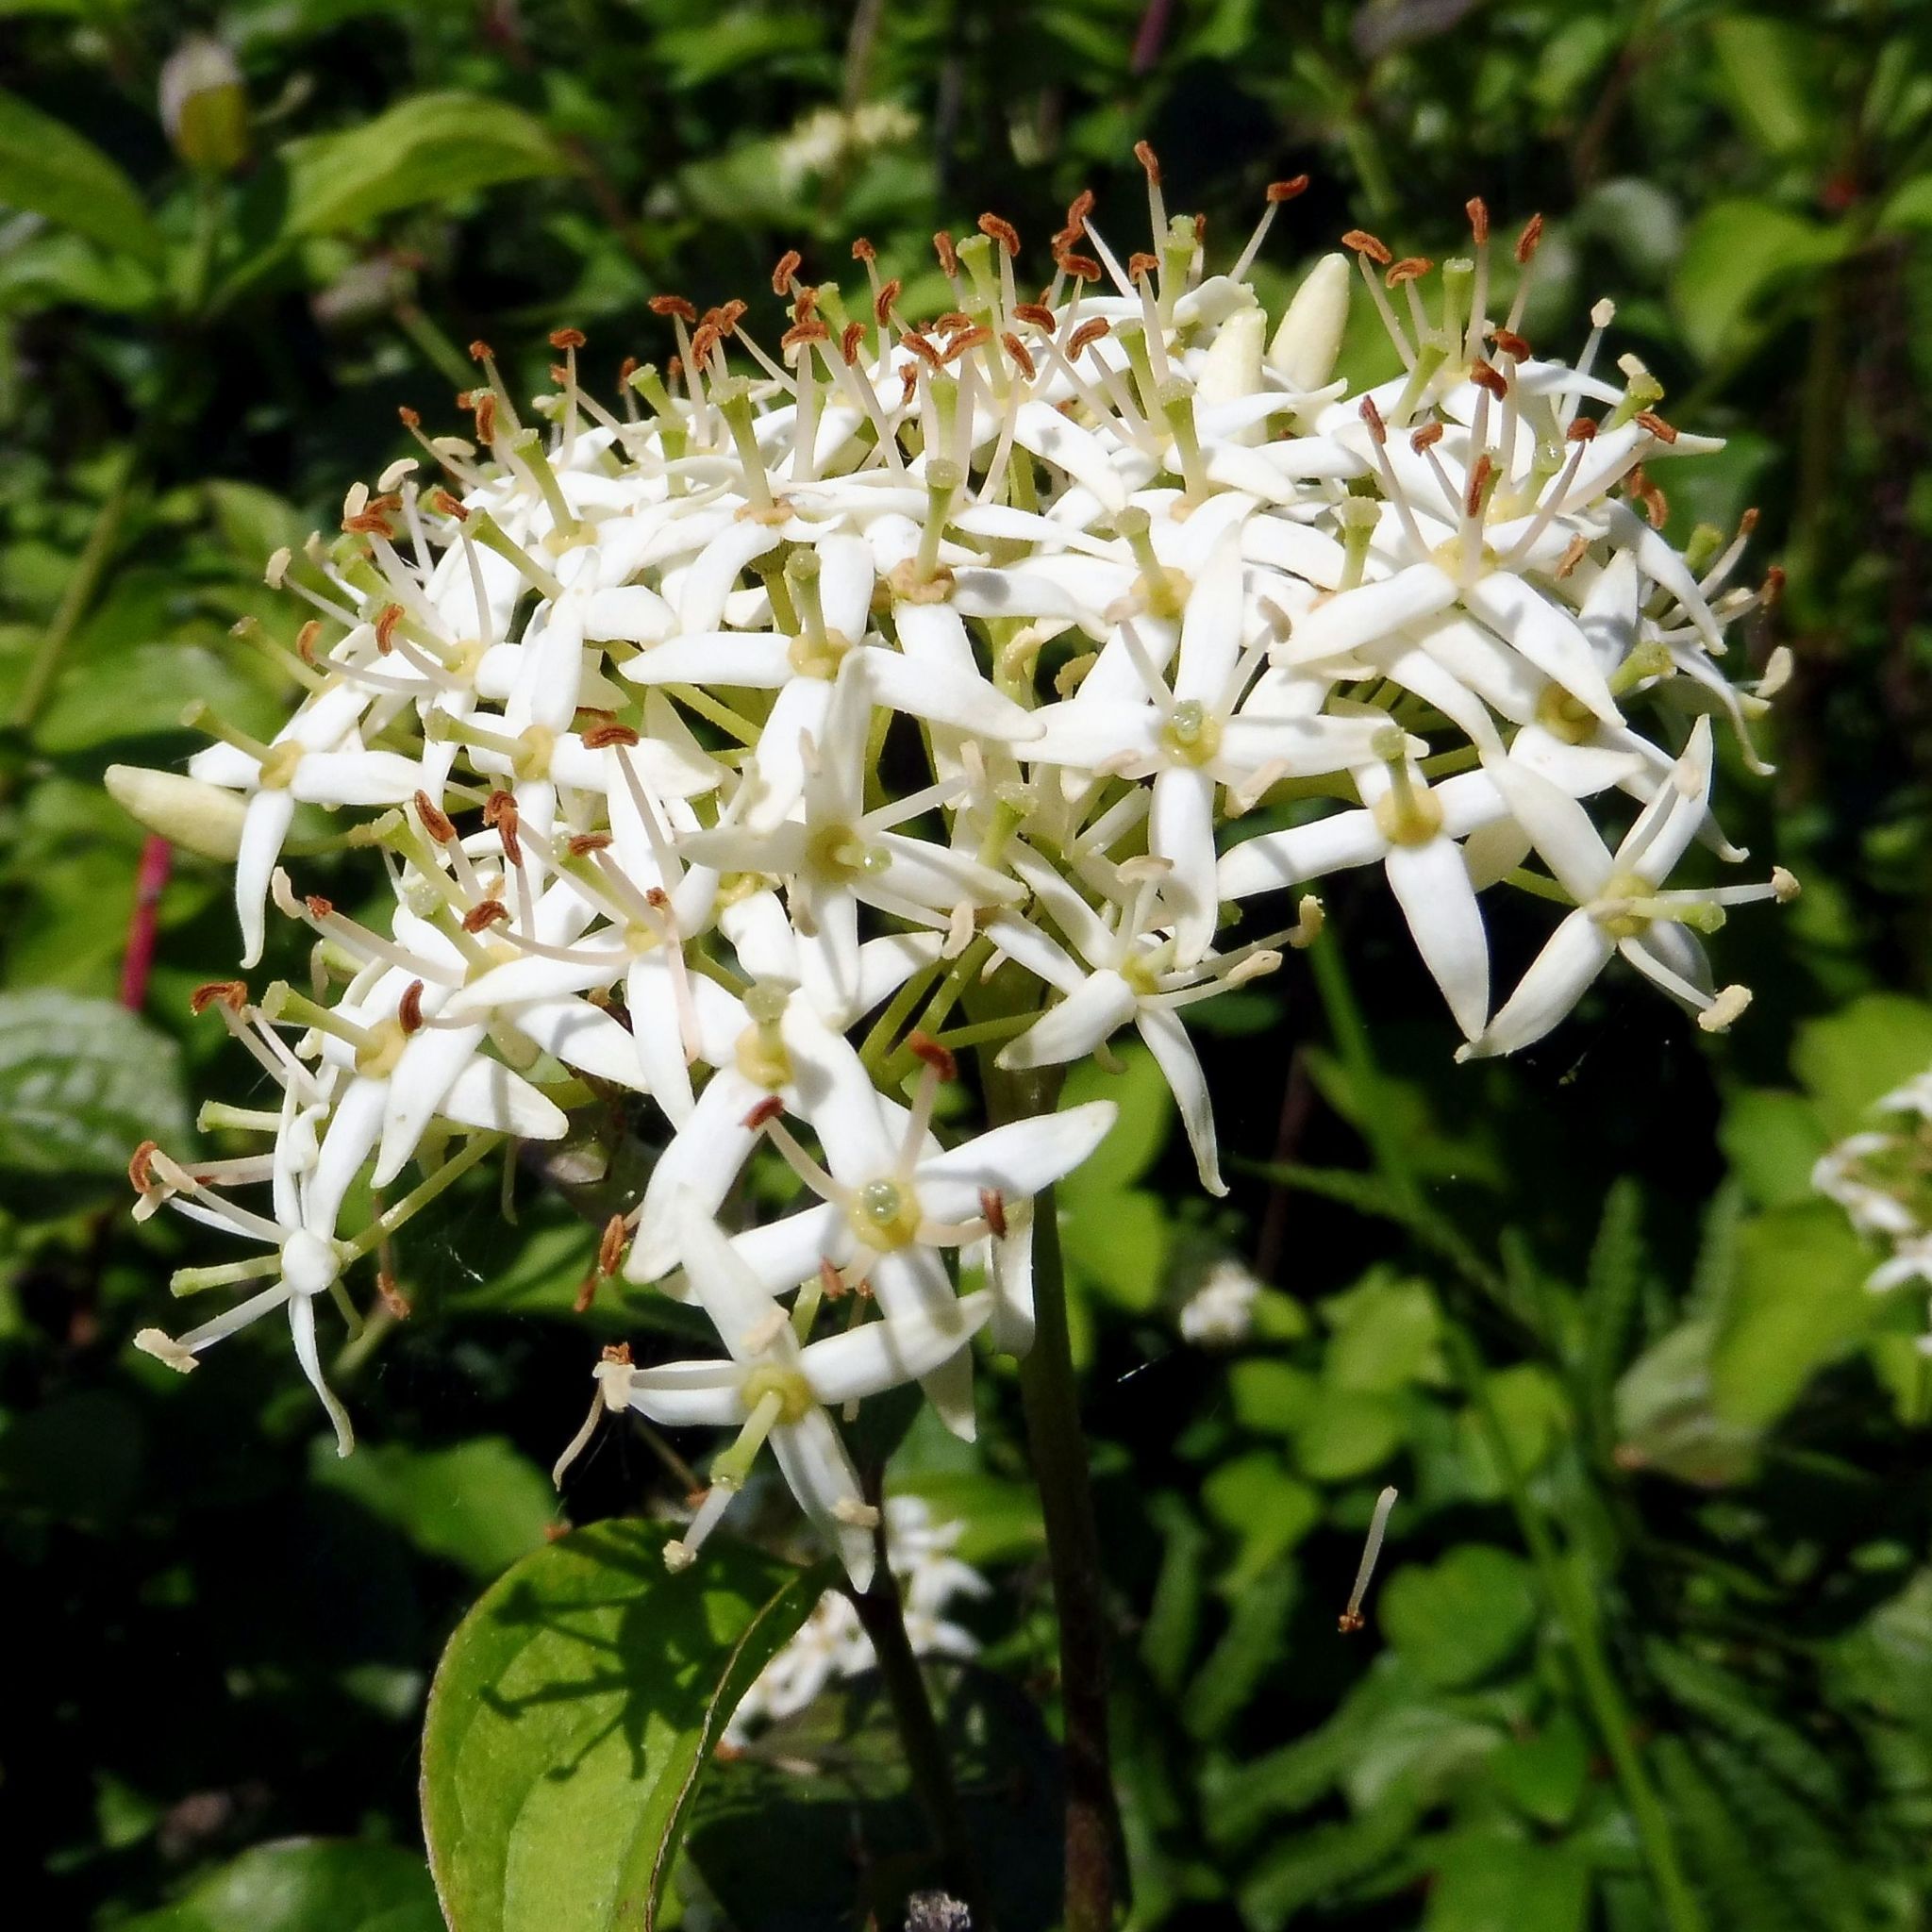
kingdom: Plantae
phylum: Tracheophyta
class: Magnoliopsida
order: Cornales
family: Cornaceae
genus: Cornus
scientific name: Cornus sanguinea
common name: Dogwood
